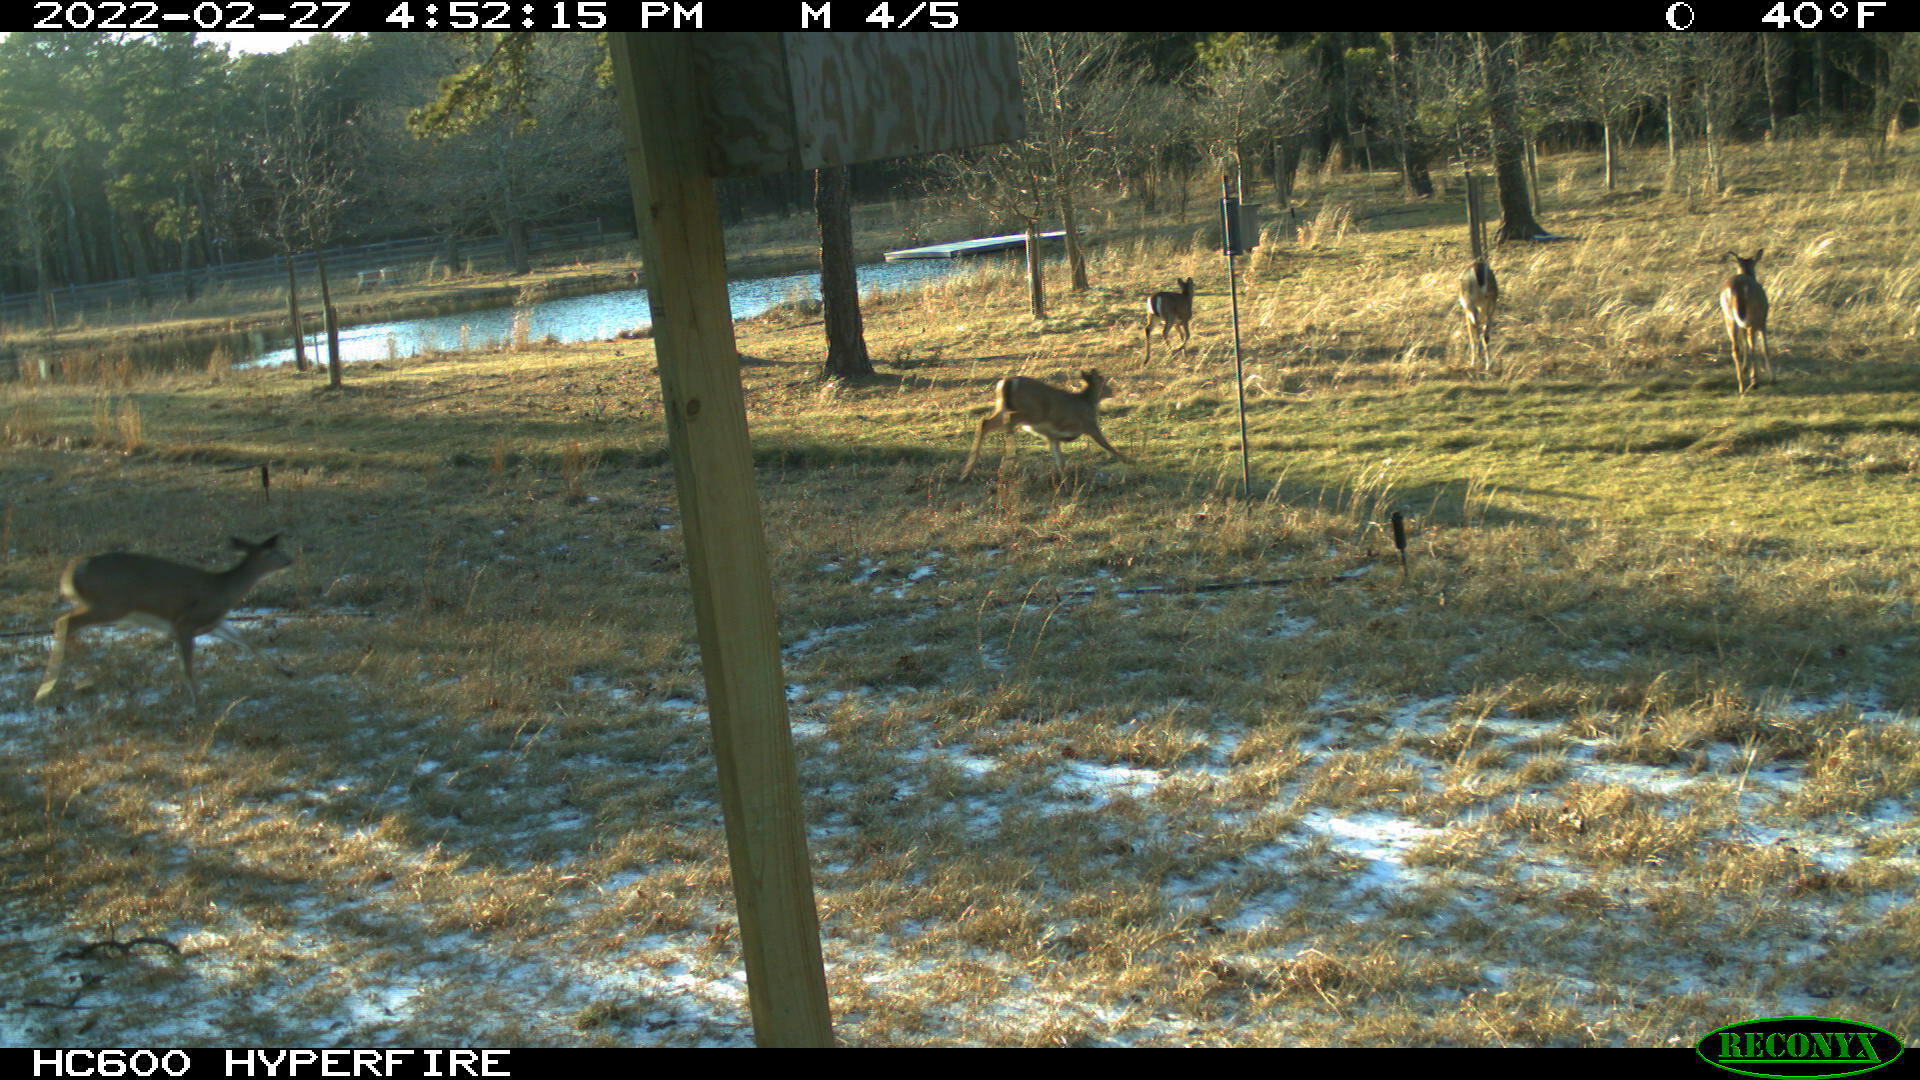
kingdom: Animalia
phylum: Chordata
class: Mammalia
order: Artiodactyla
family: Cervidae
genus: Odocoileus
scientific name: Odocoileus virginianus
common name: White-tailed deer
